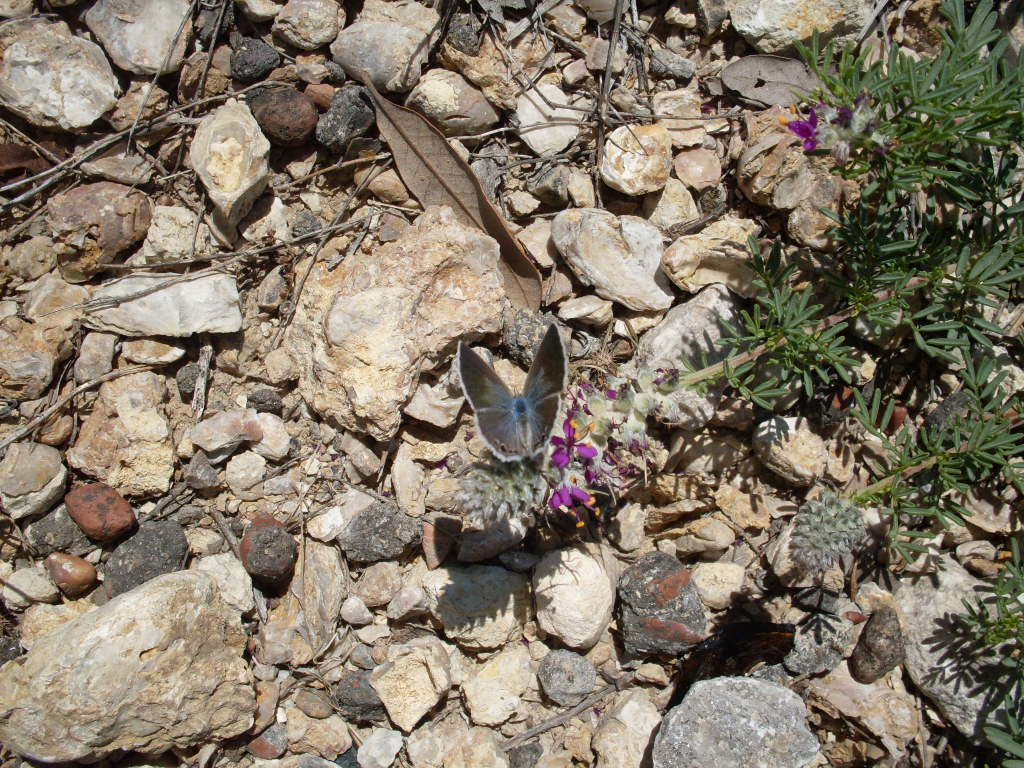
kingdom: Animalia
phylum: Arthropoda
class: Insecta
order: Lepidoptera
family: Lycaenidae
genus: Echinargus
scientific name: Echinargus isola
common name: Reakirt's blue
